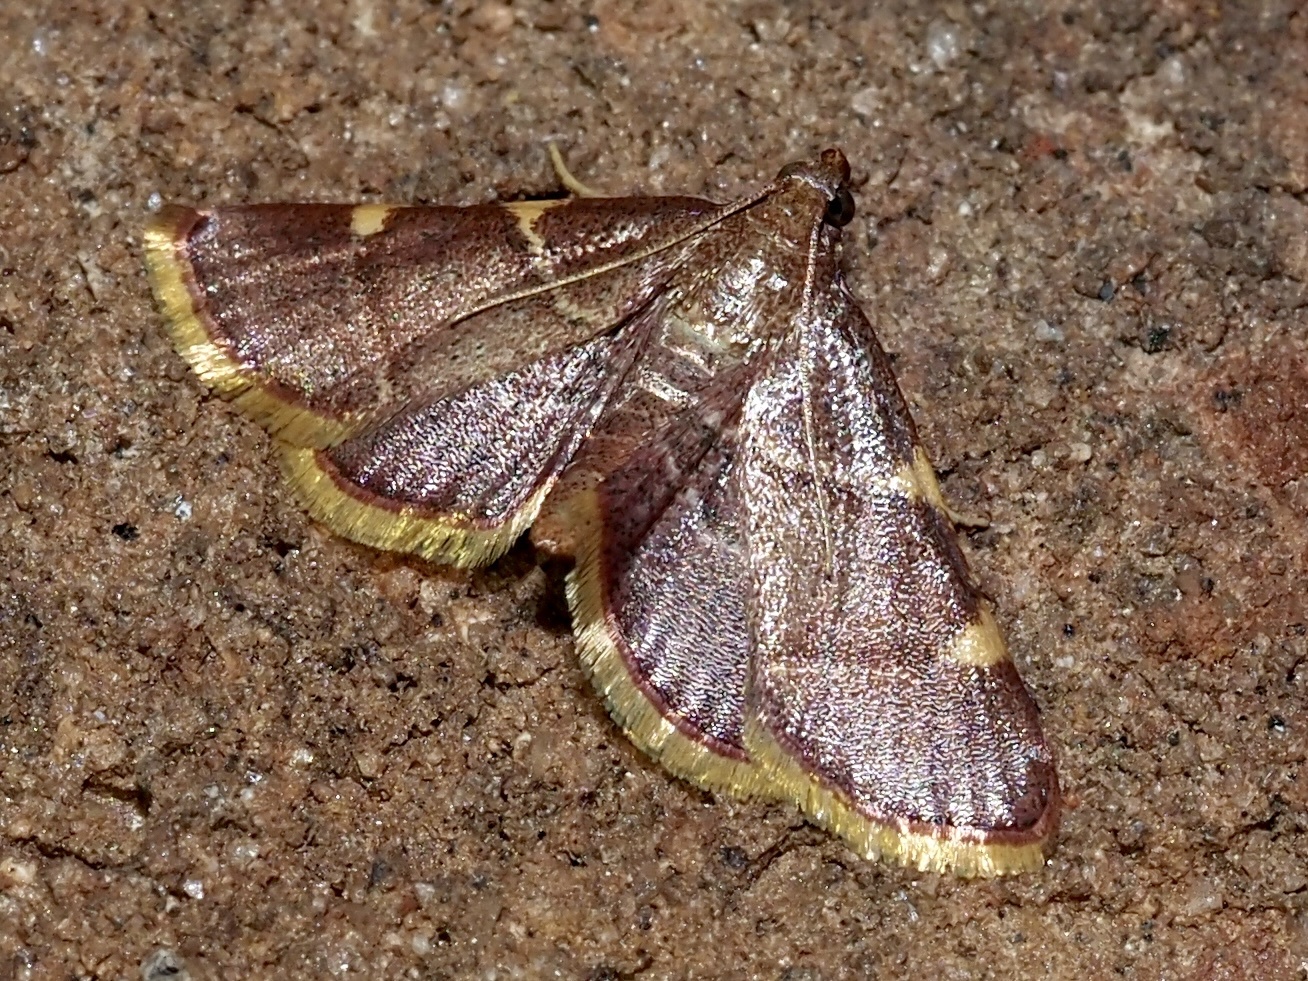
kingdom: Animalia
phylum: Arthropoda
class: Insecta
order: Lepidoptera
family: Pyralidae
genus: Hypsopygia
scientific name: Hypsopygia olinalis
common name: Yellow-fringed dolichomia moth
